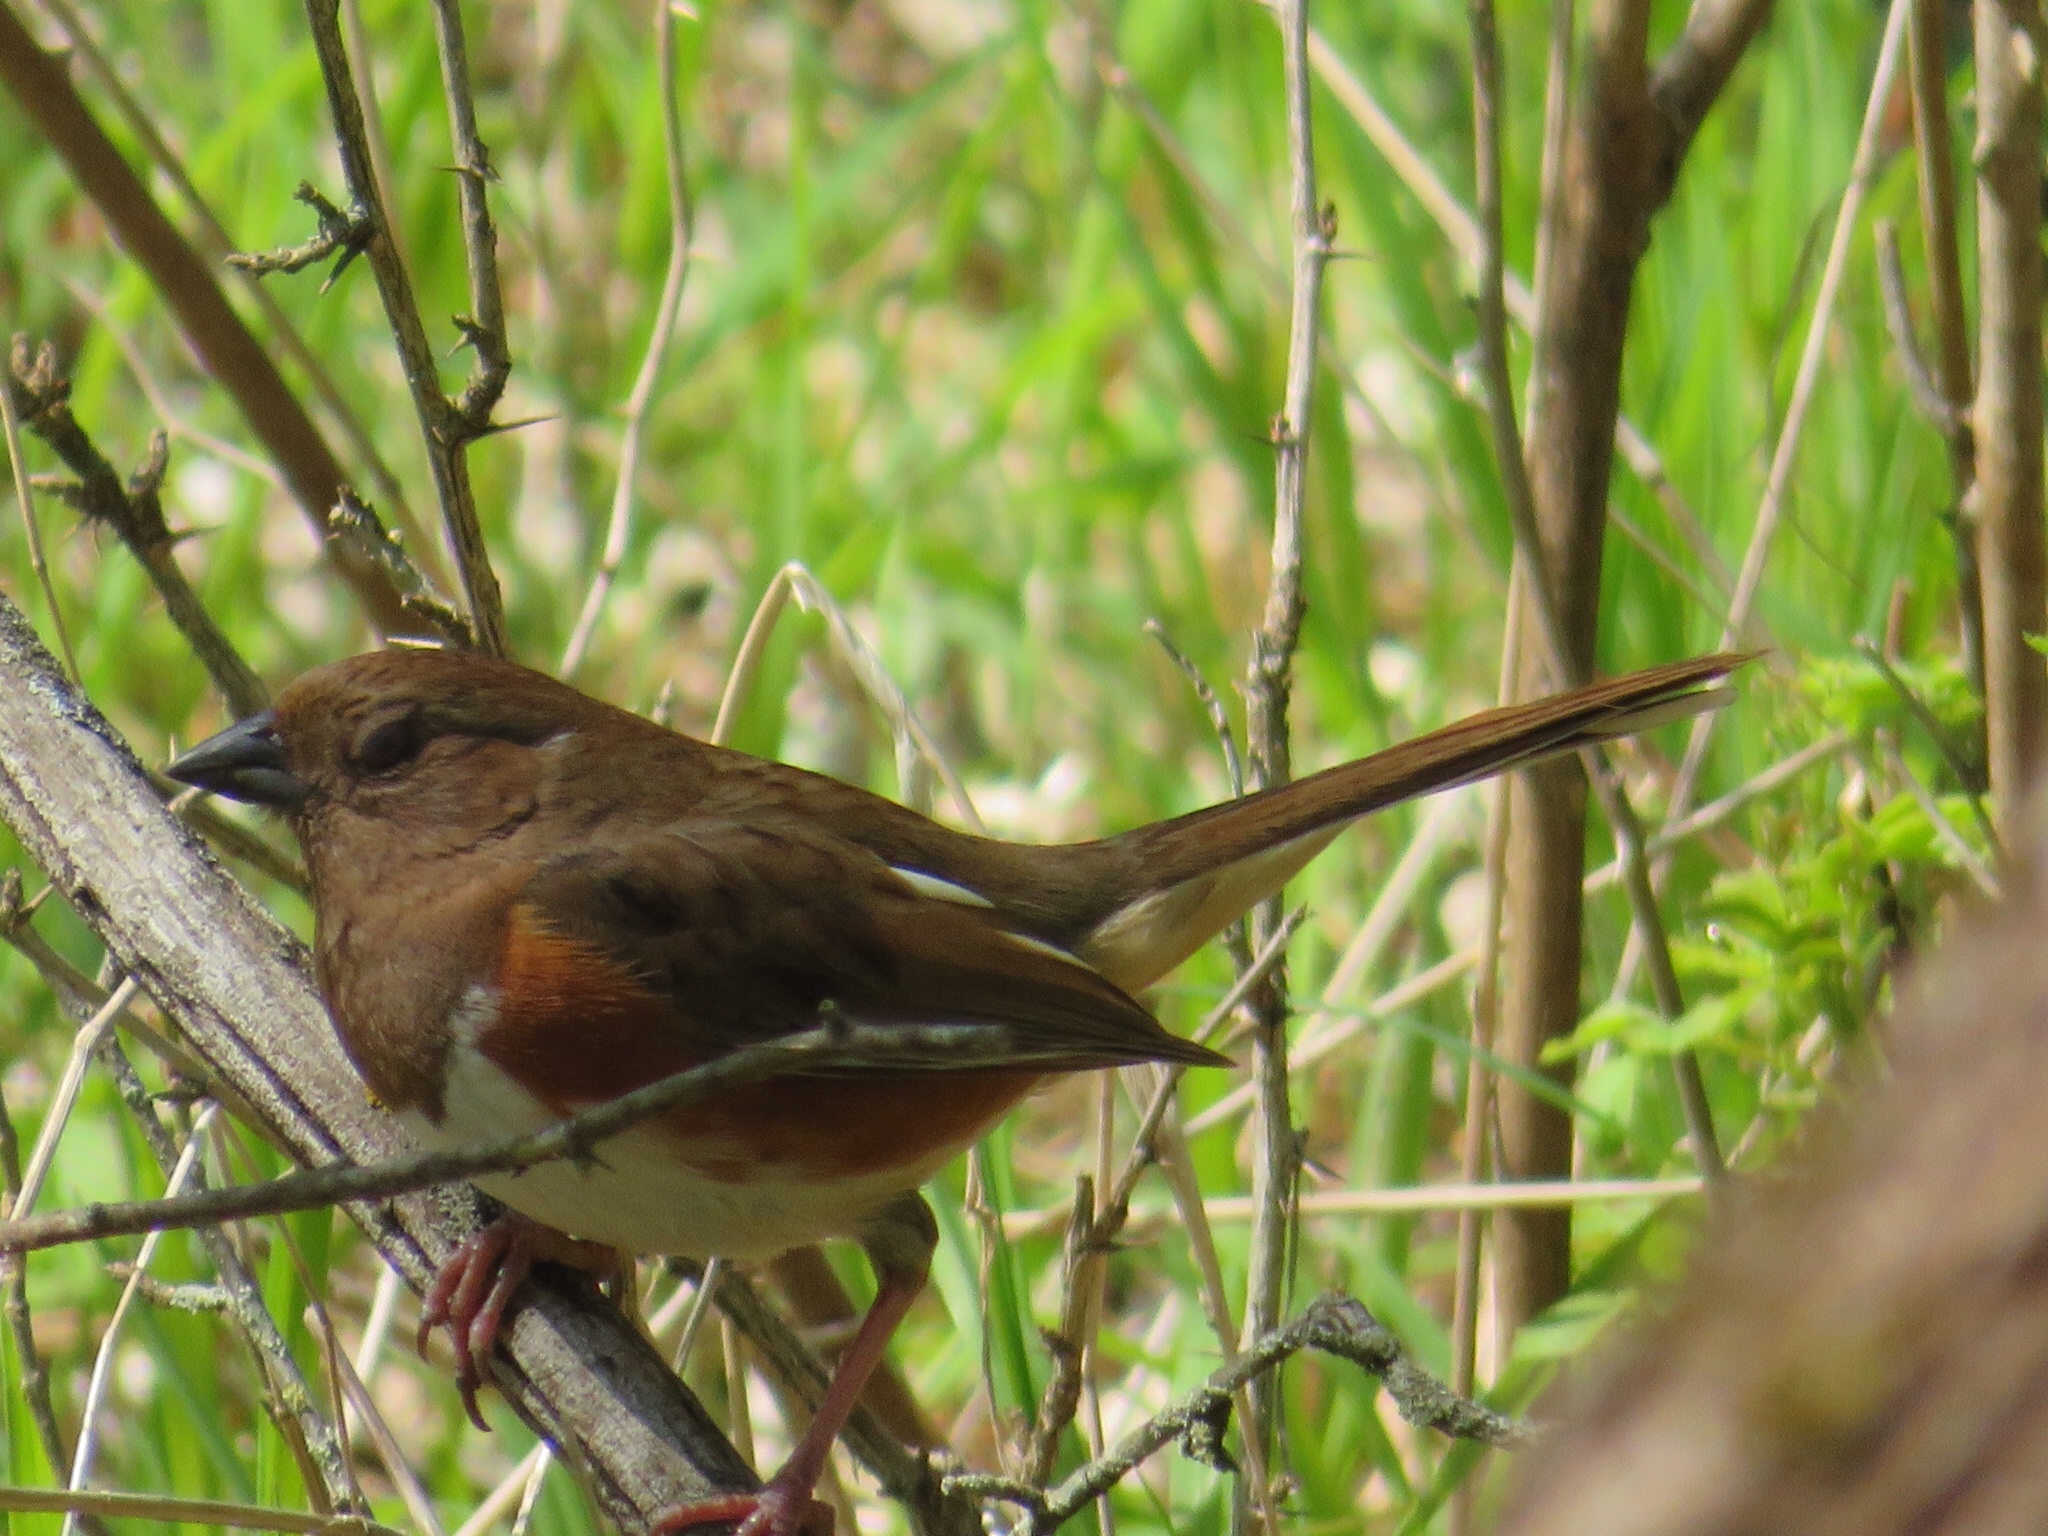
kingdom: Animalia
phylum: Chordata
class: Aves
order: Passeriformes
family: Passerellidae
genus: Pipilo
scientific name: Pipilo erythrophthalmus
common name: Eastern towhee
